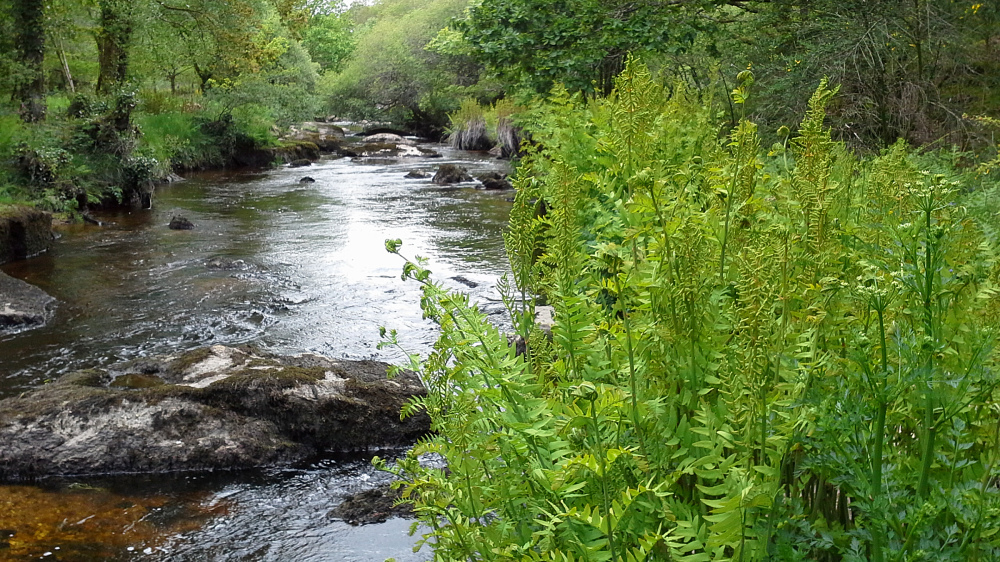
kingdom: Plantae
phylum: Tracheophyta
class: Polypodiopsida
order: Osmundales
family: Osmundaceae
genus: Osmunda
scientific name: Osmunda regalis
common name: Royal fern
